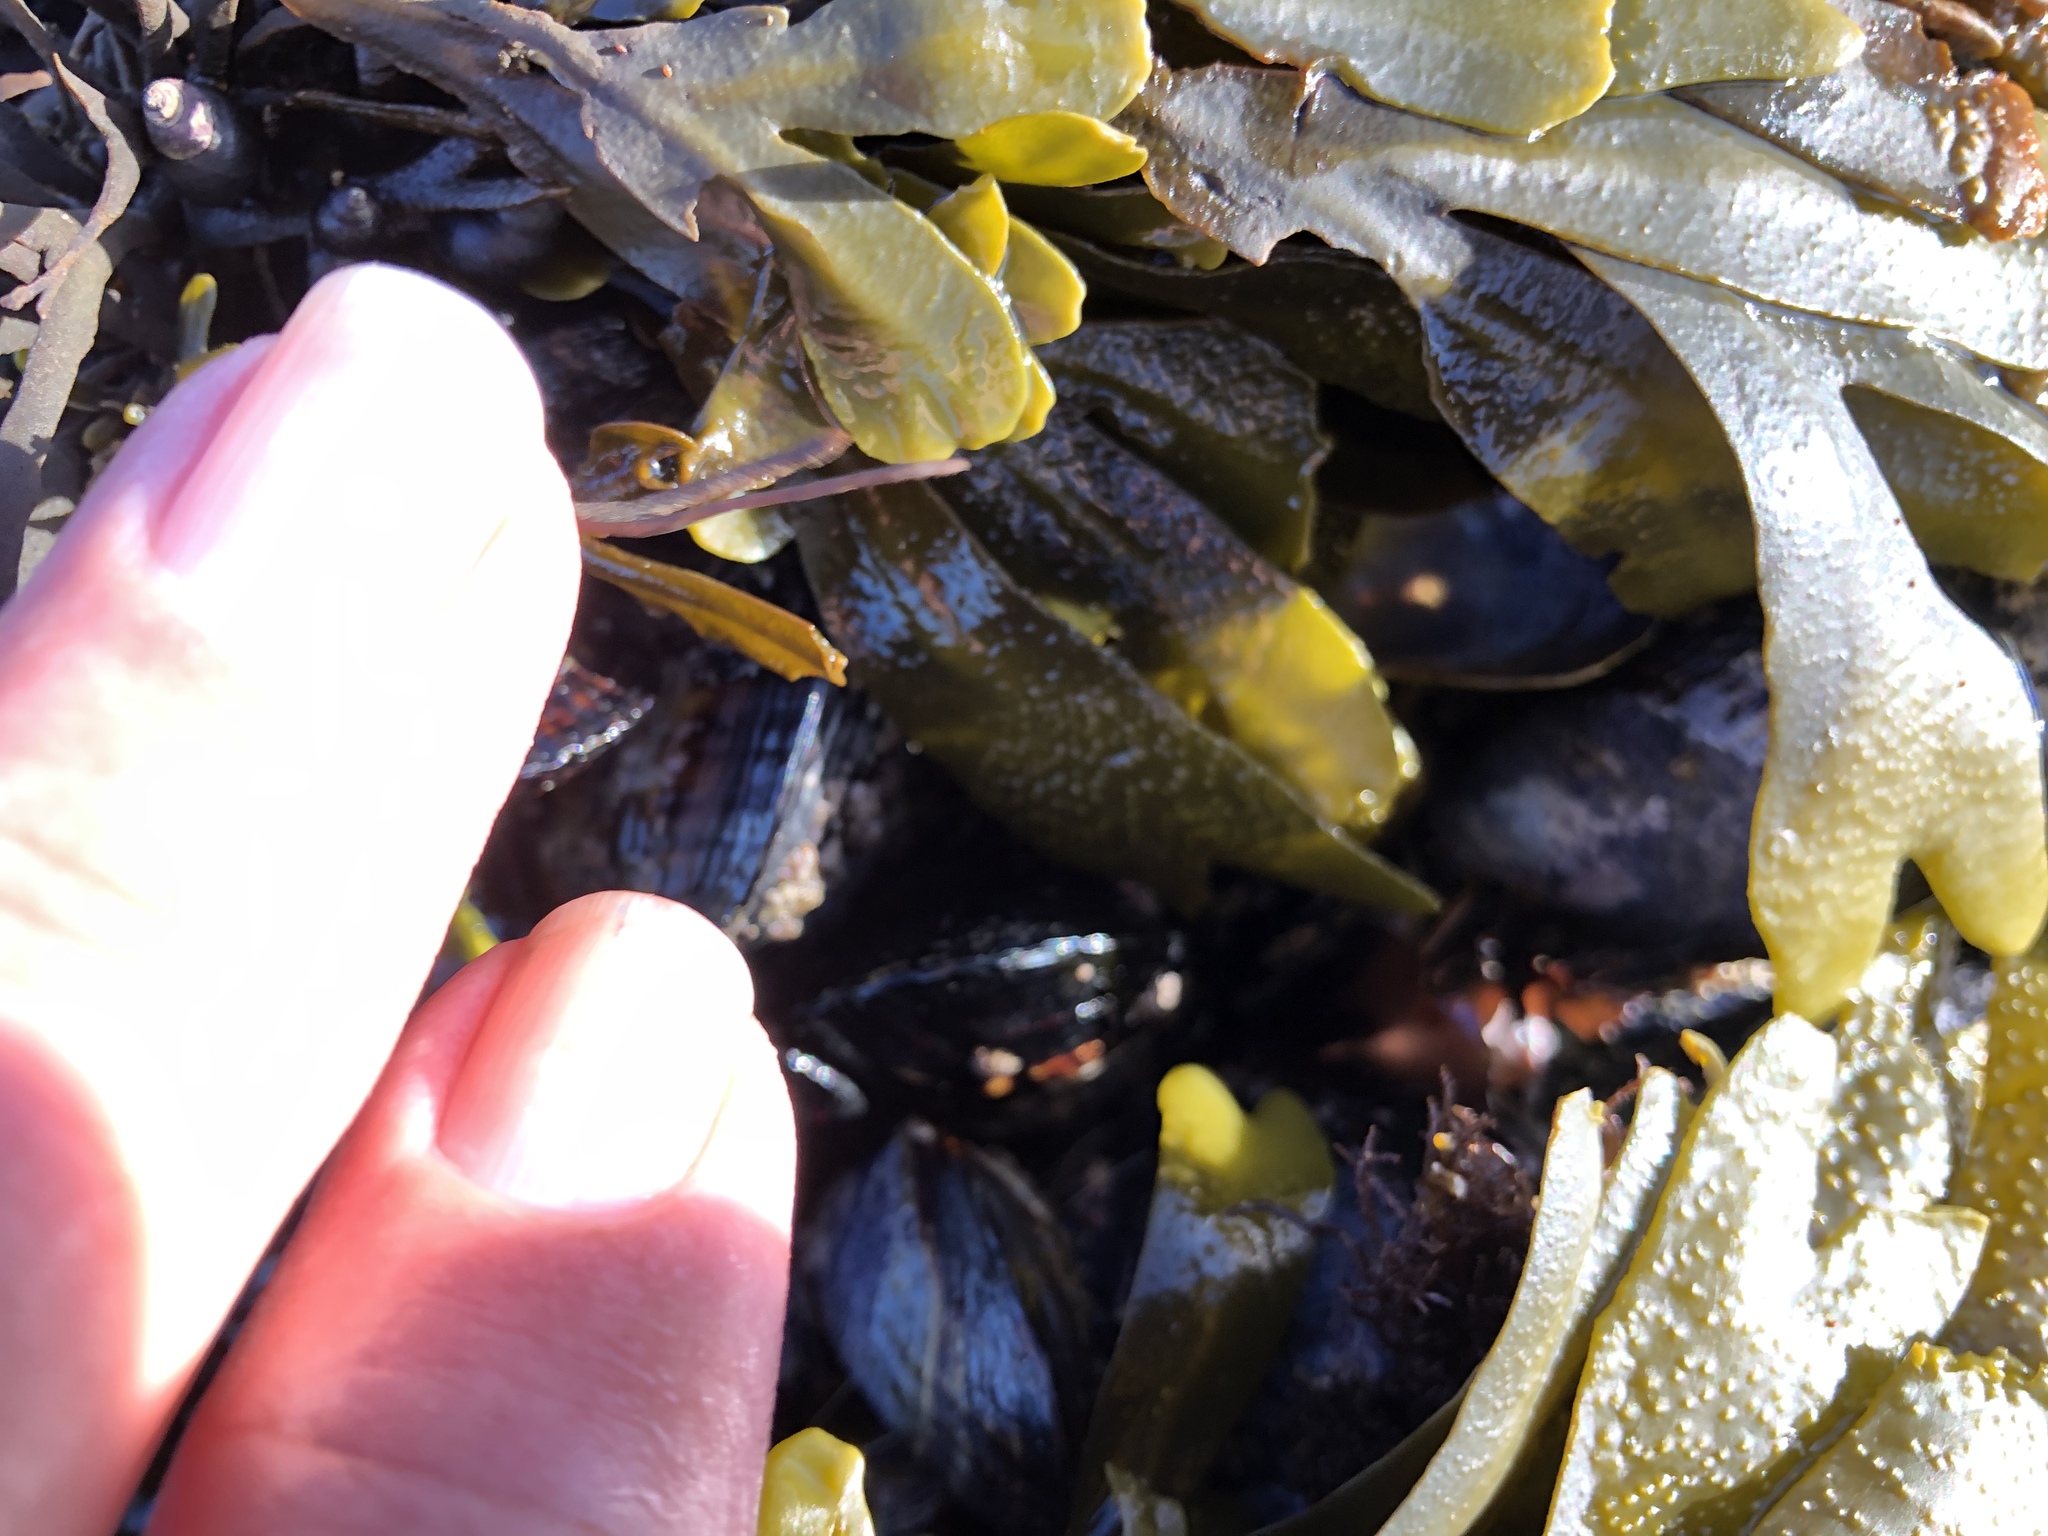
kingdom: Chromista
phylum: Ochrophyta
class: Phaeophyceae
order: Fucales
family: Fucaceae
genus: Fucus
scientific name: Fucus distichus
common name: Rockweed
